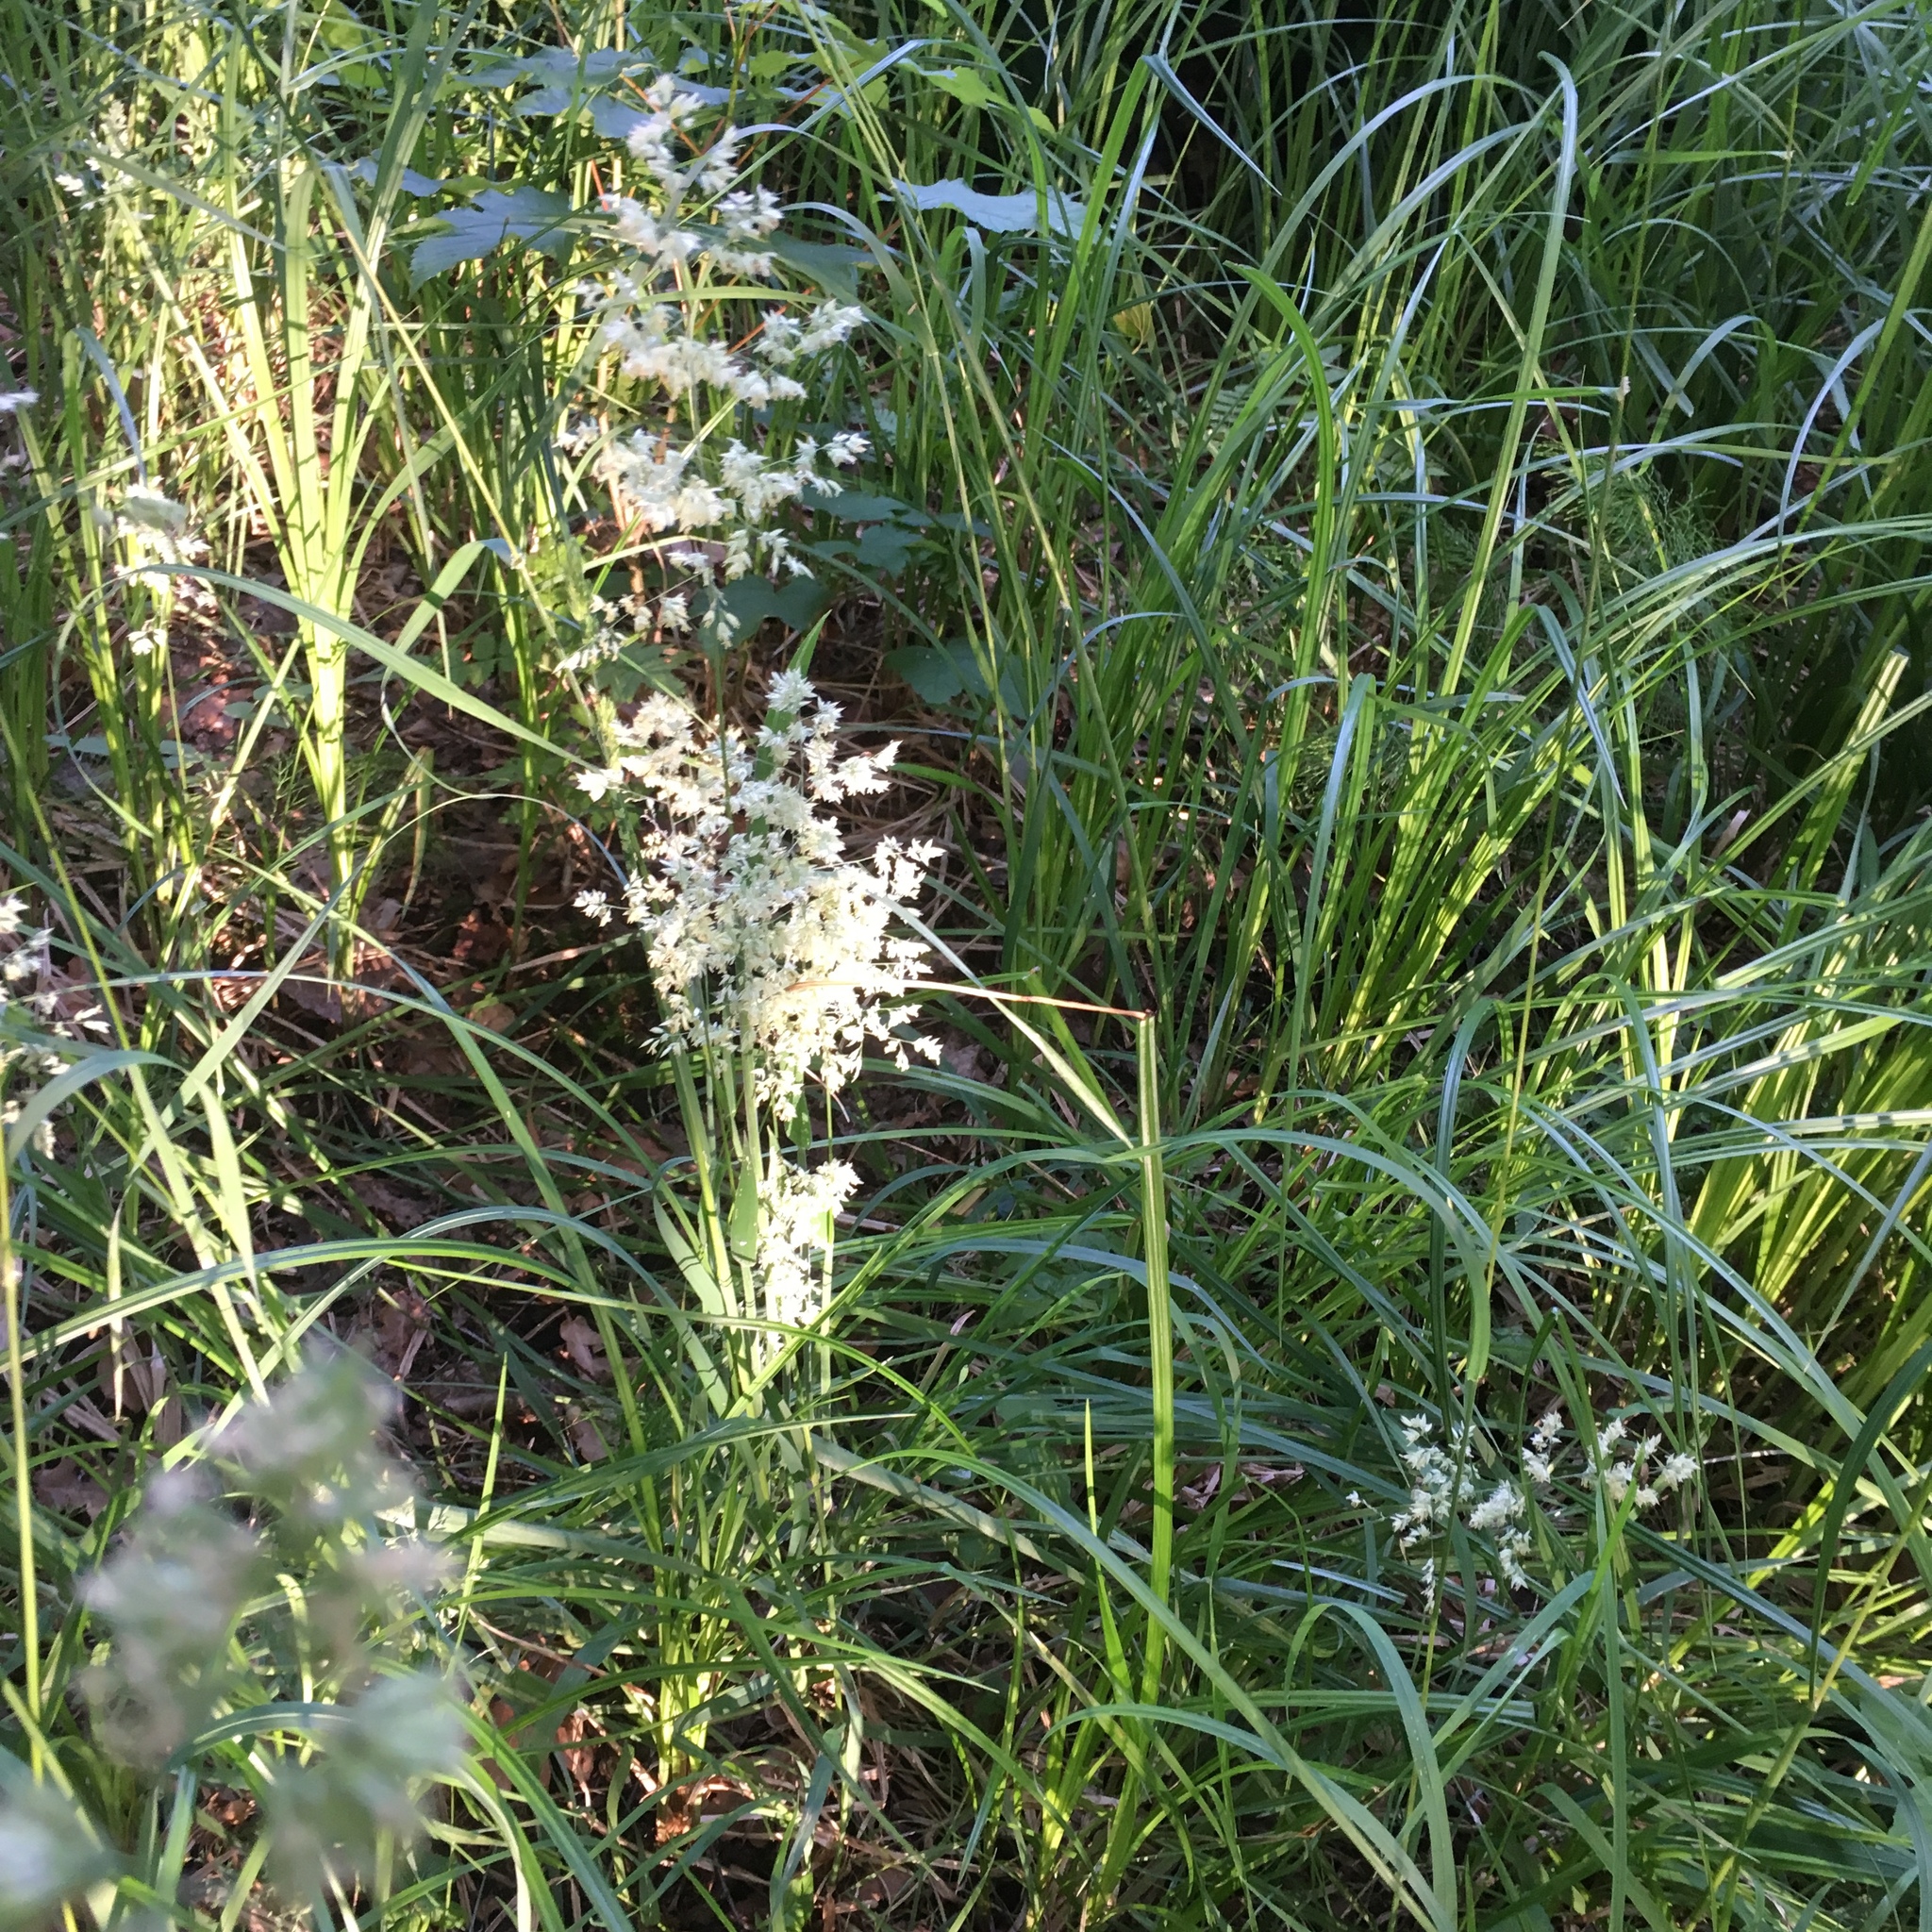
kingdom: Plantae
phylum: Tracheophyta
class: Liliopsida
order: Poales
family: Poaceae
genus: Holcus
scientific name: Holcus lanatus
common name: Yorkshire-fog
